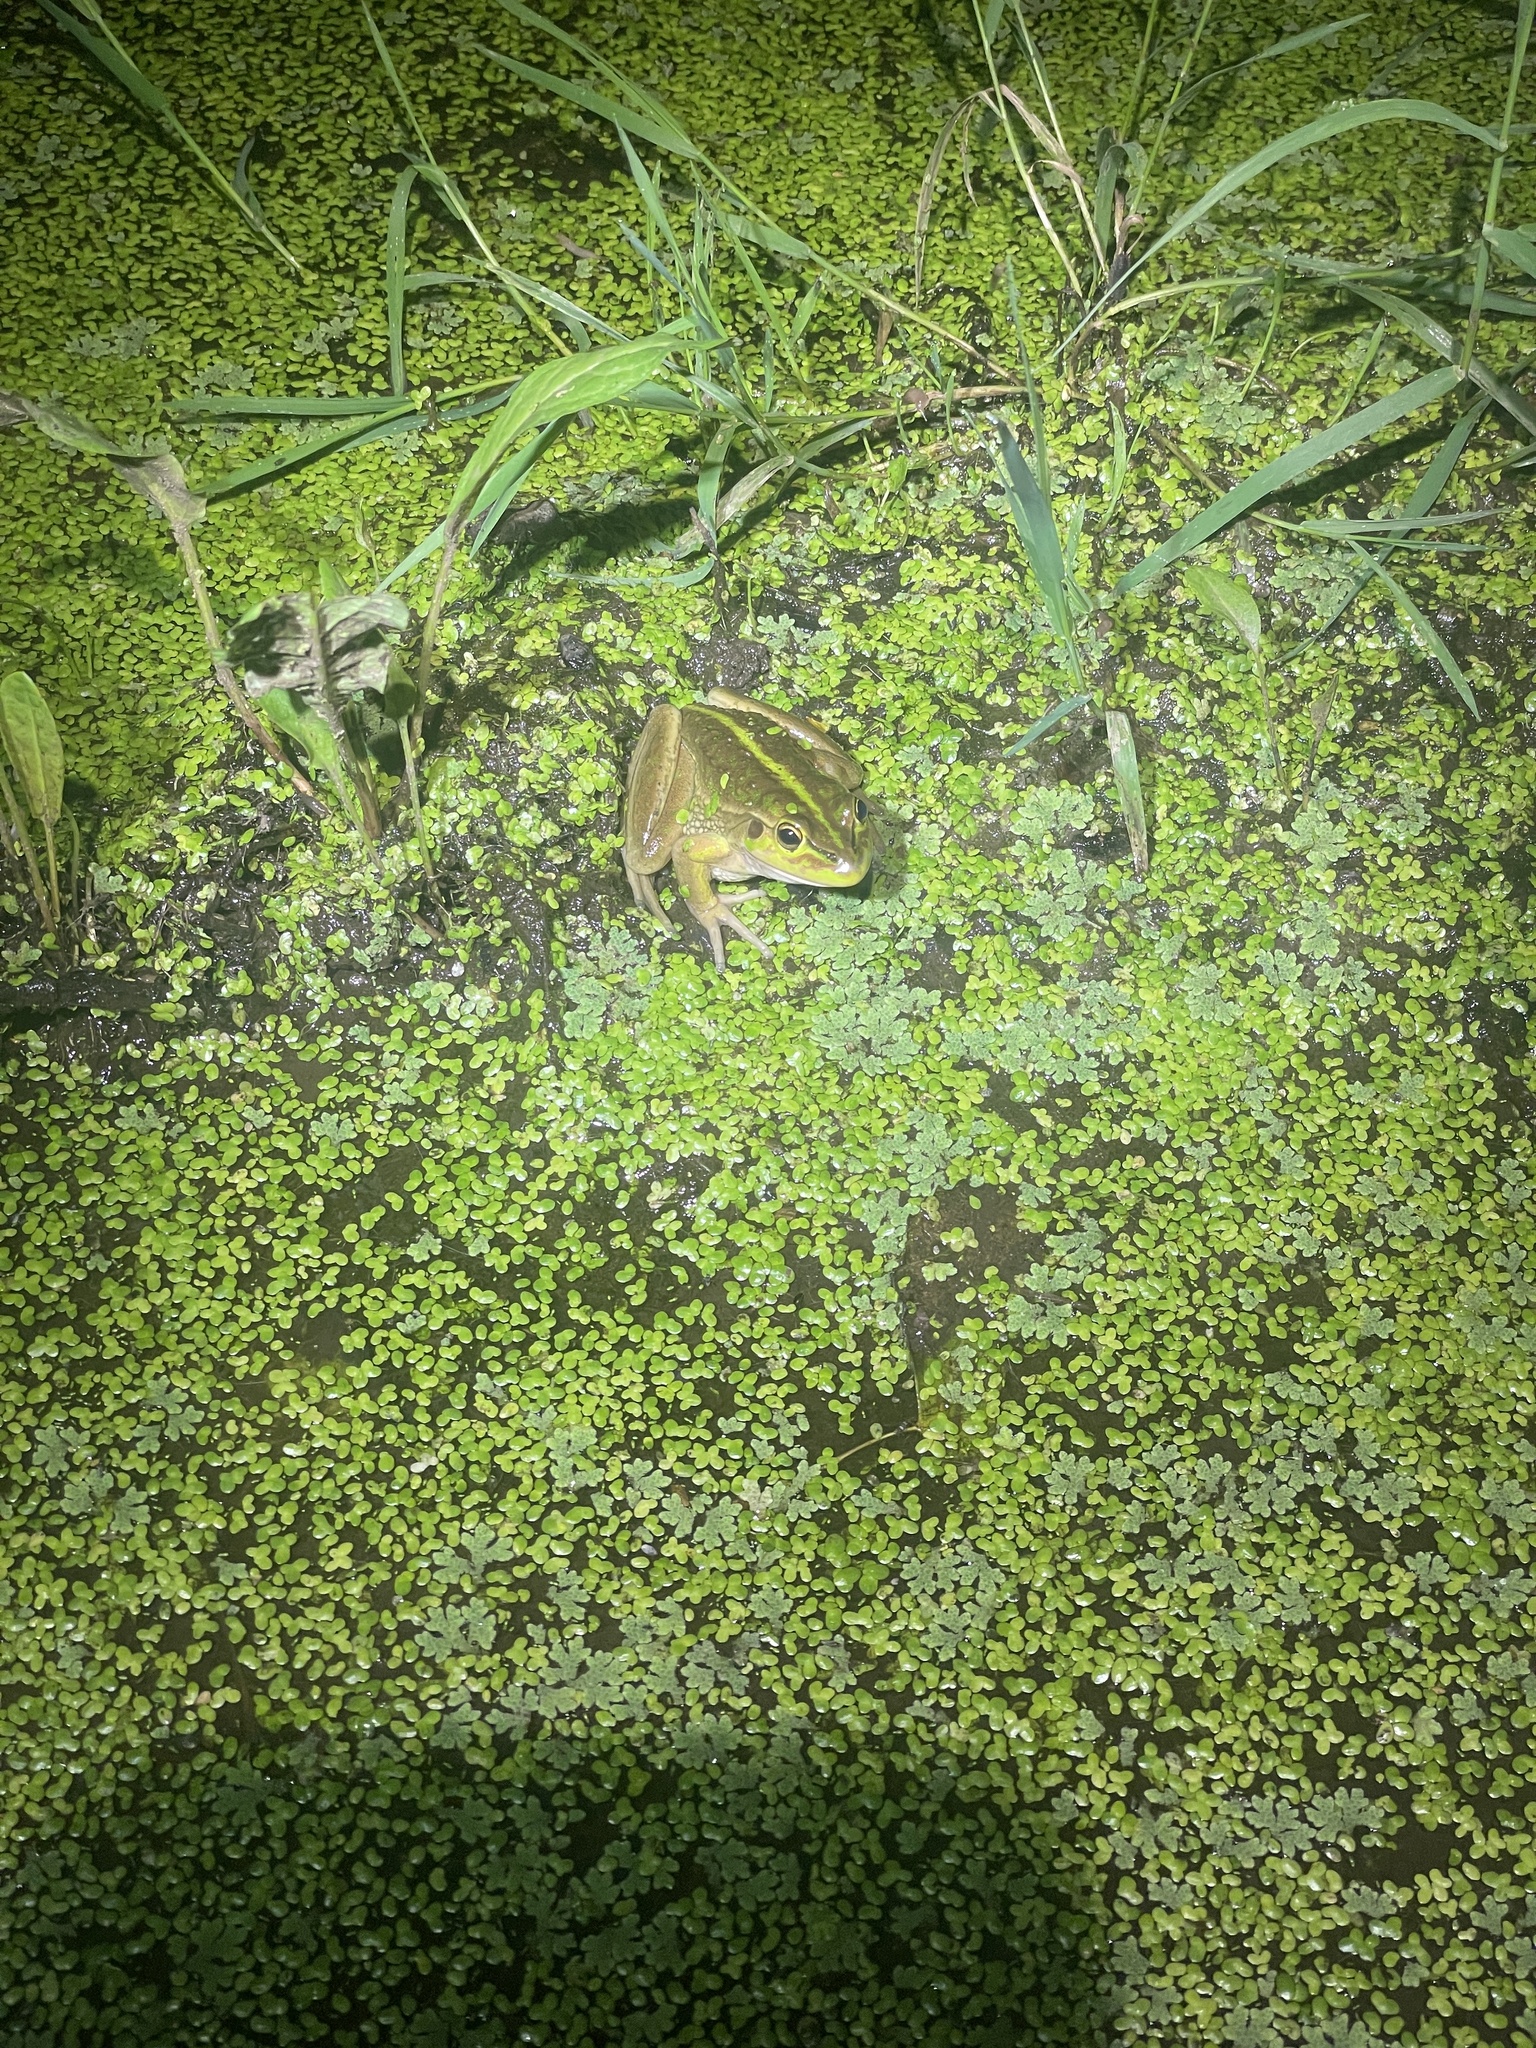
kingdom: Animalia
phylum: Chordata
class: Amphibia
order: Anura
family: Pelodryadidae
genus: Ranoidea
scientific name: Ranoidea raniformis
